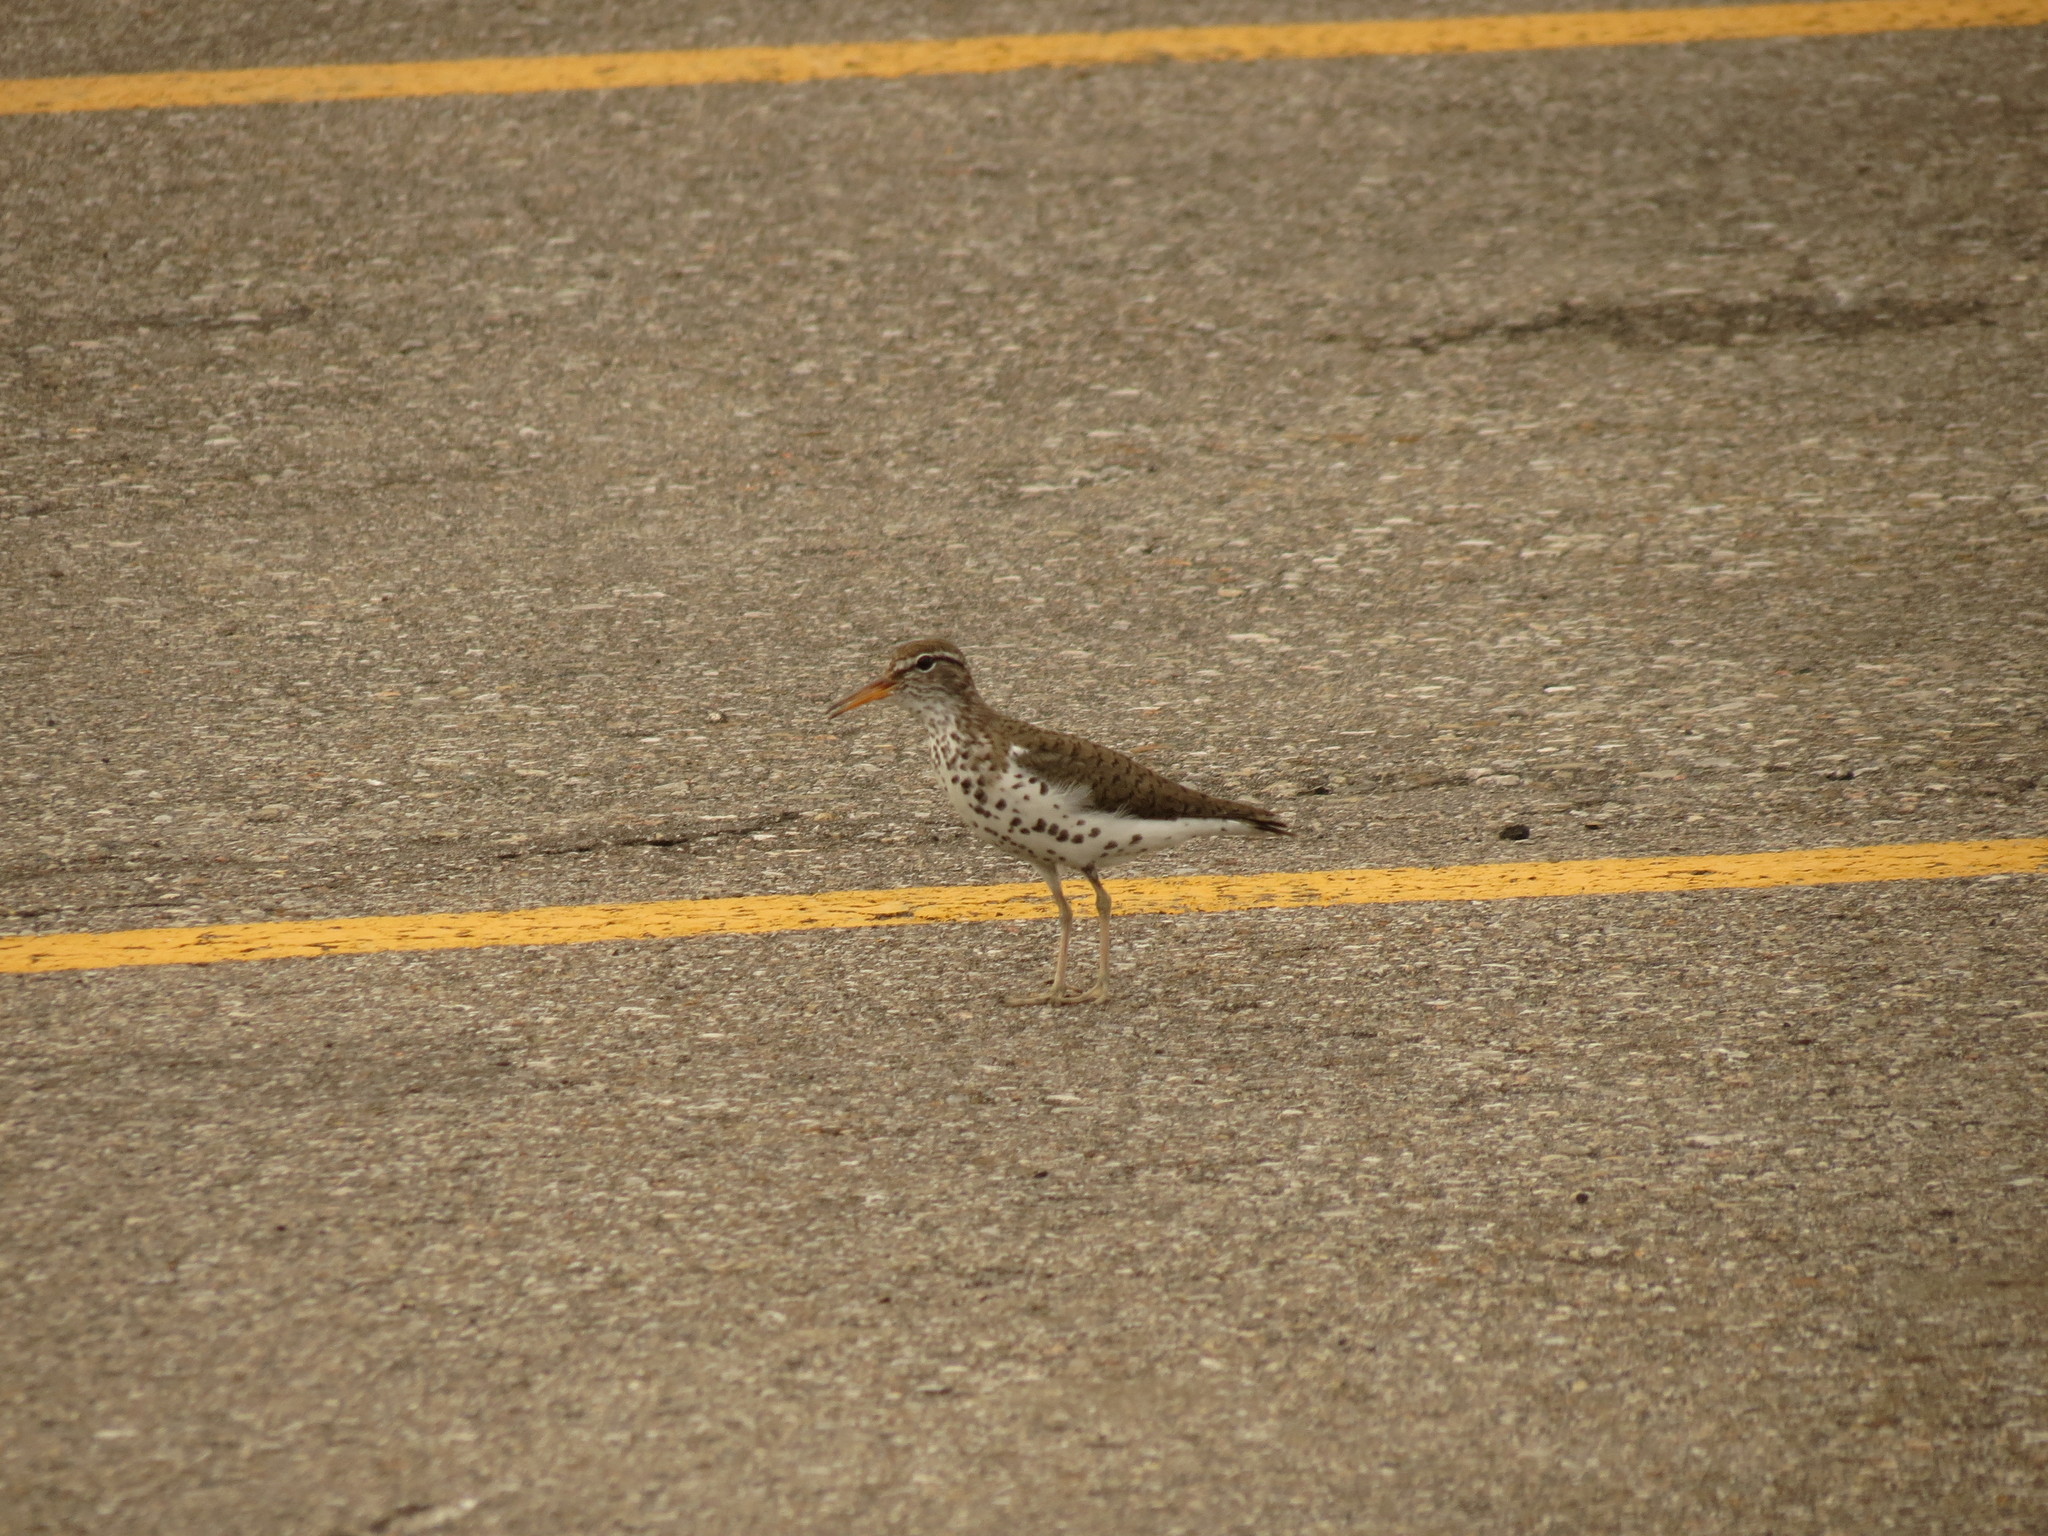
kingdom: Animalia
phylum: Chordata
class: Aves
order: Charadriiformes
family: Scolopacidae
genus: Actitis
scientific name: Actitis macularius
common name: Spotted sandpiper
